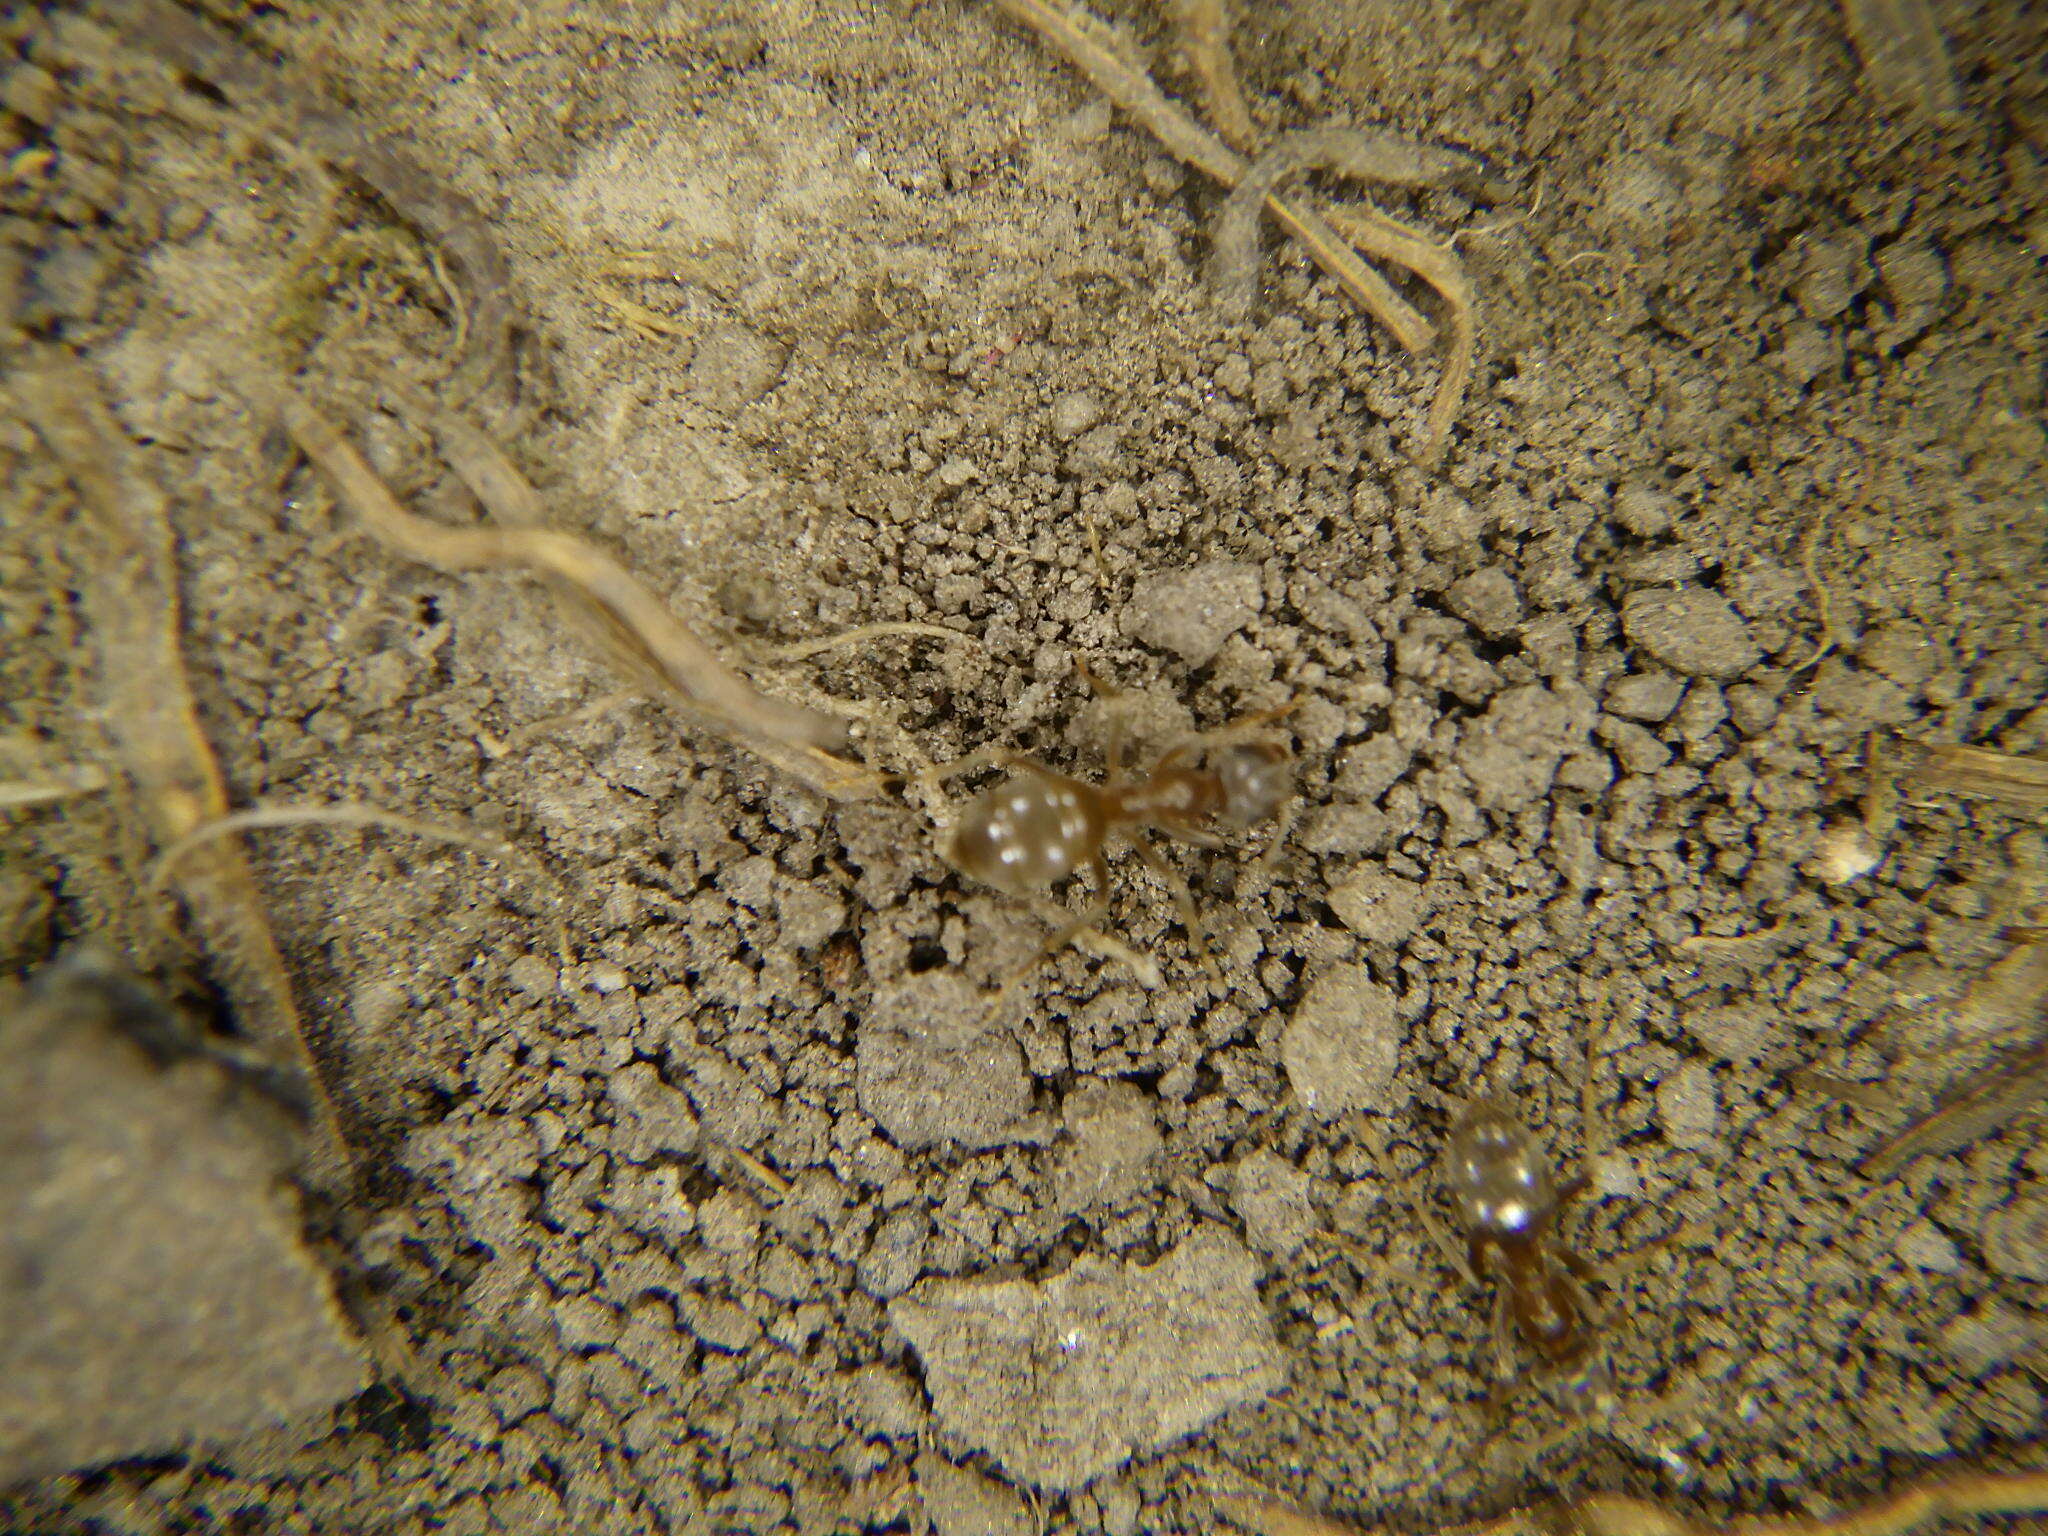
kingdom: Animalia
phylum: Arthropoda
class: Insecta
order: Hymenoptera
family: Formicidae
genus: Lasius
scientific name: Lasius neoniger
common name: Turfgrass ant
